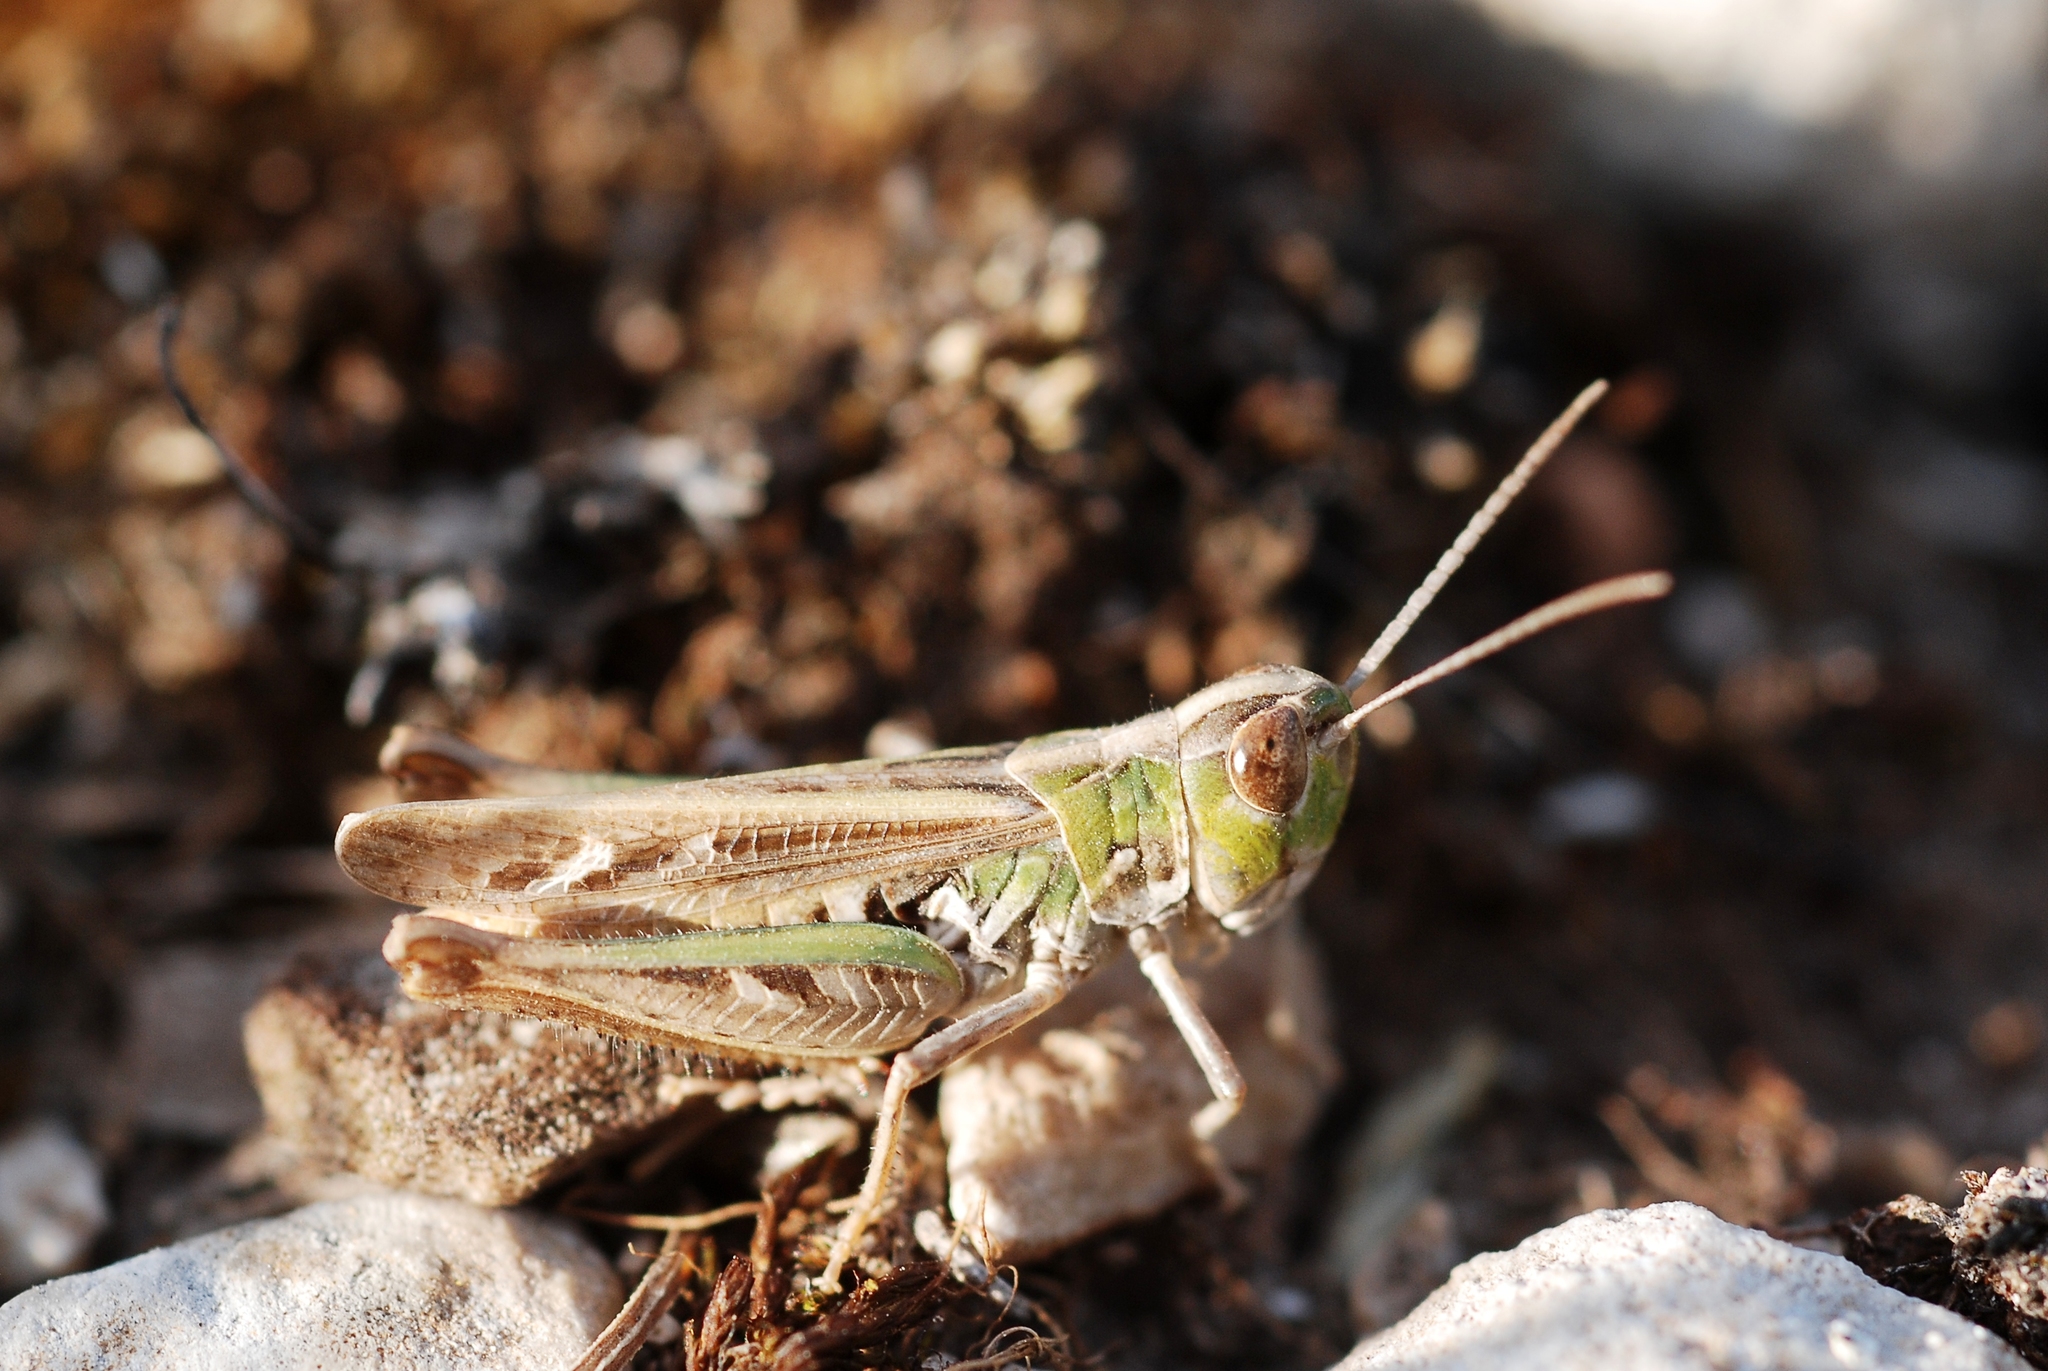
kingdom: Animalia
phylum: Arthropoda
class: Insecta
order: Orthoptera
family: Acrididae
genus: Omocestus
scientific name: Omocestus petraeus
